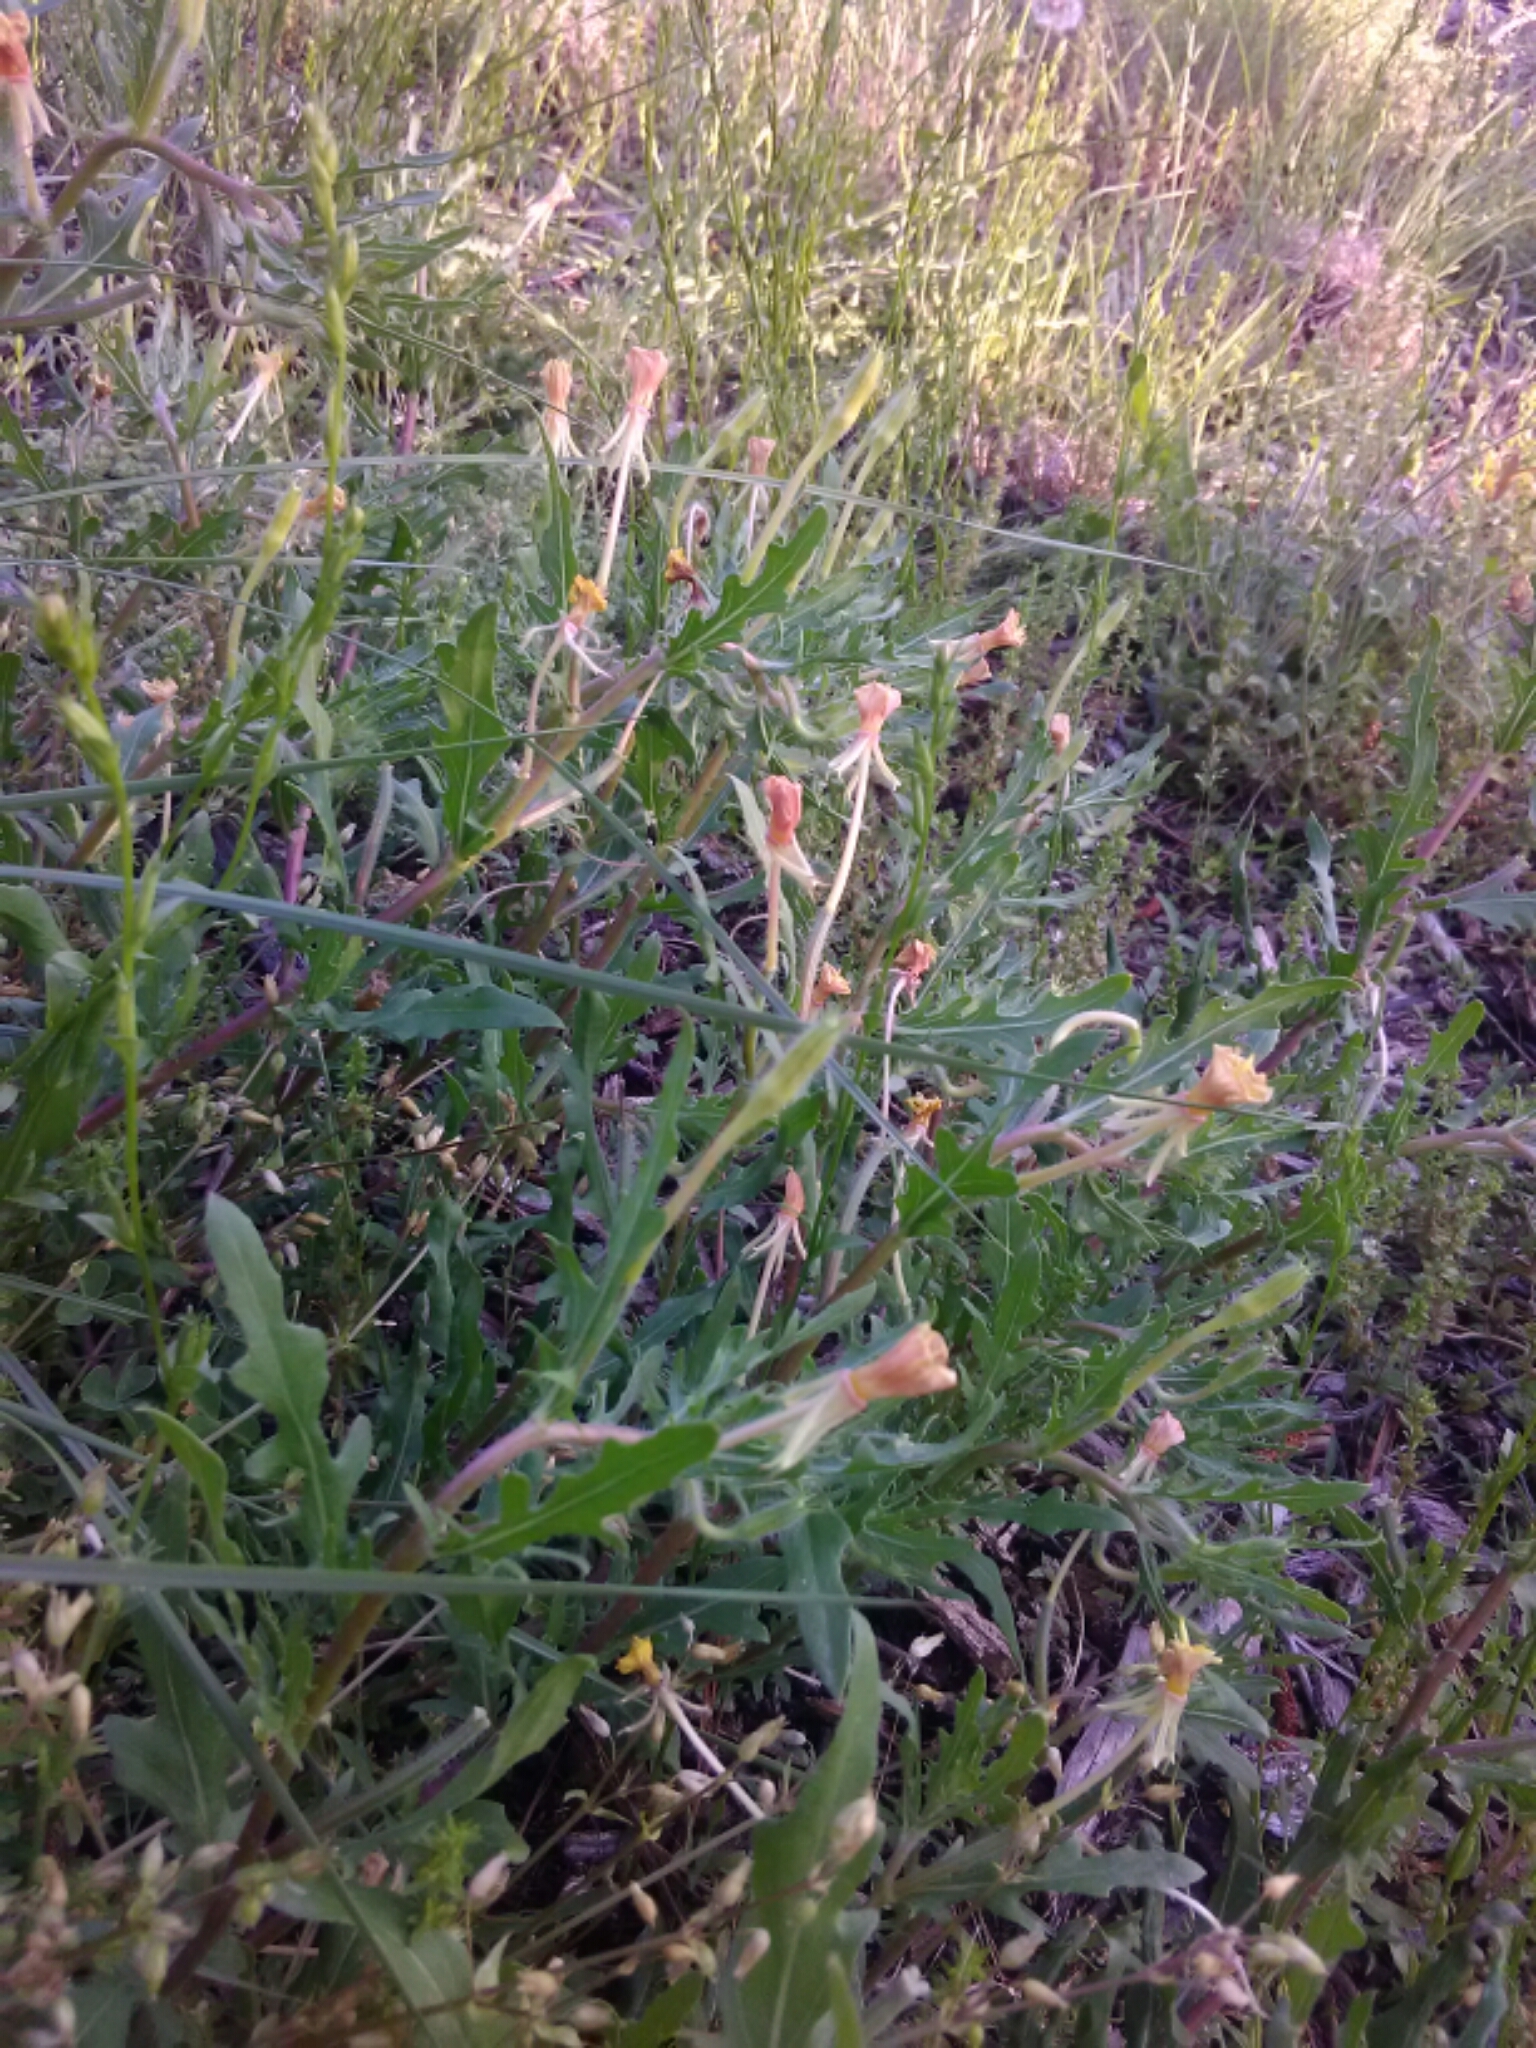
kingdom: Plantae
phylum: Tracheophyta
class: Magnoliopsida
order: Myrtales
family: Onagraceae
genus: Oenothera
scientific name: Oenothera laciniata
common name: Cut-leaved evening-primrose
